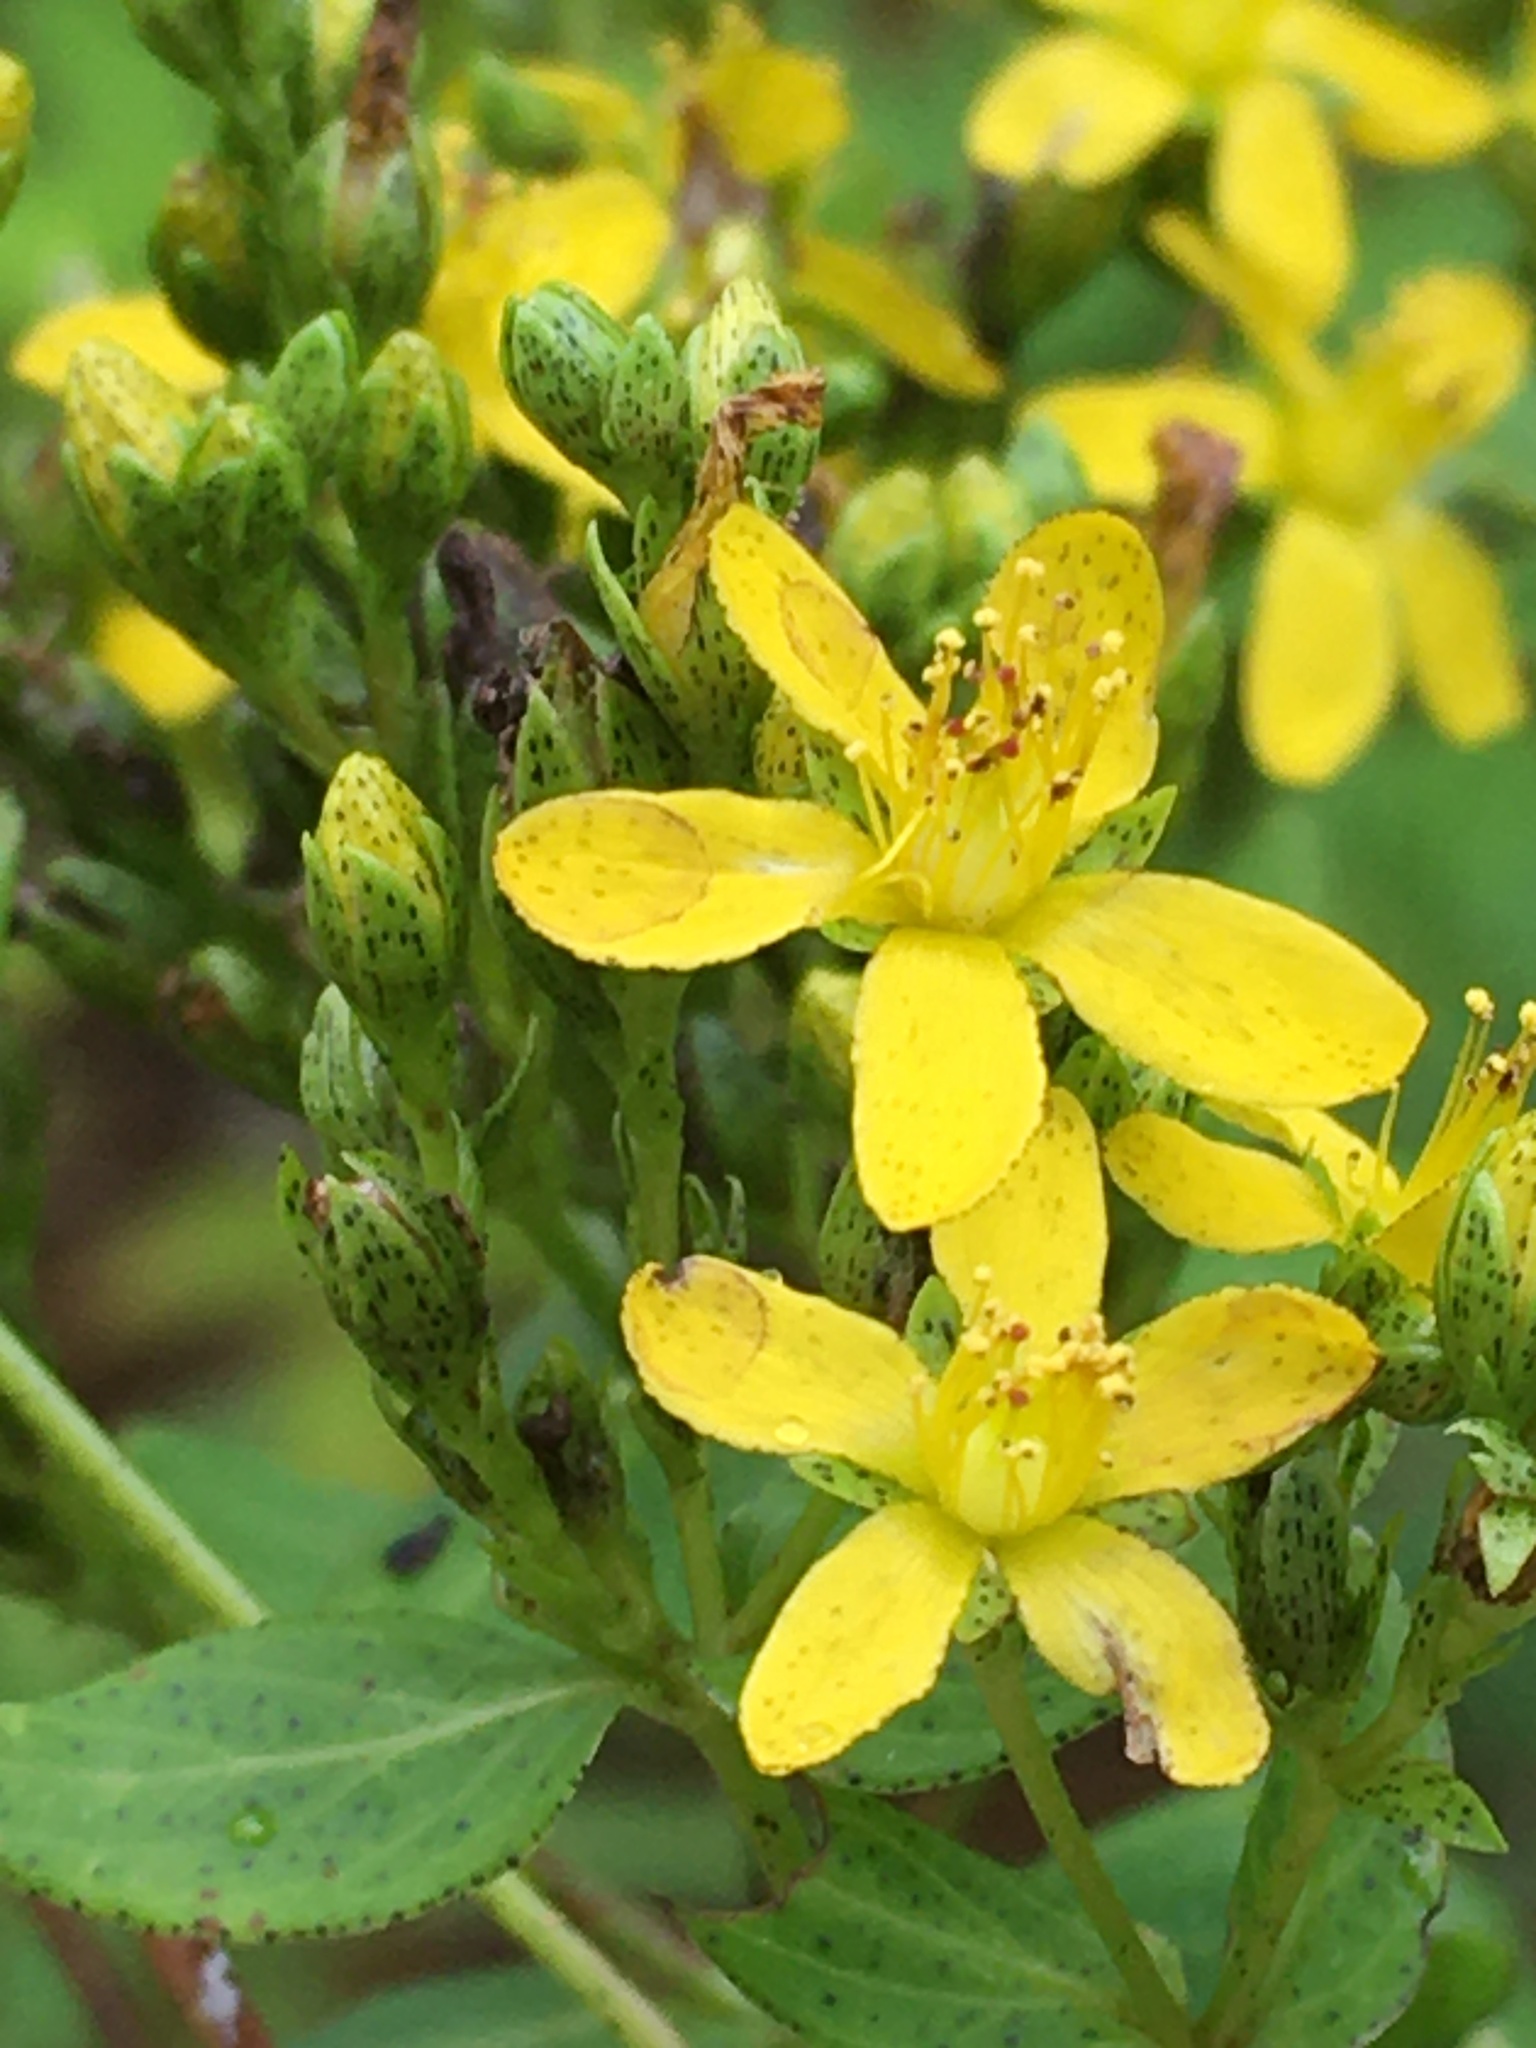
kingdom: Plantae
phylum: Tracheophyta
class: Magnoliopsida
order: Malpighiales
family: Hypericaceae
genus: Hypericum
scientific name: Hypericum punctatum
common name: Spotted st. john's-wort
